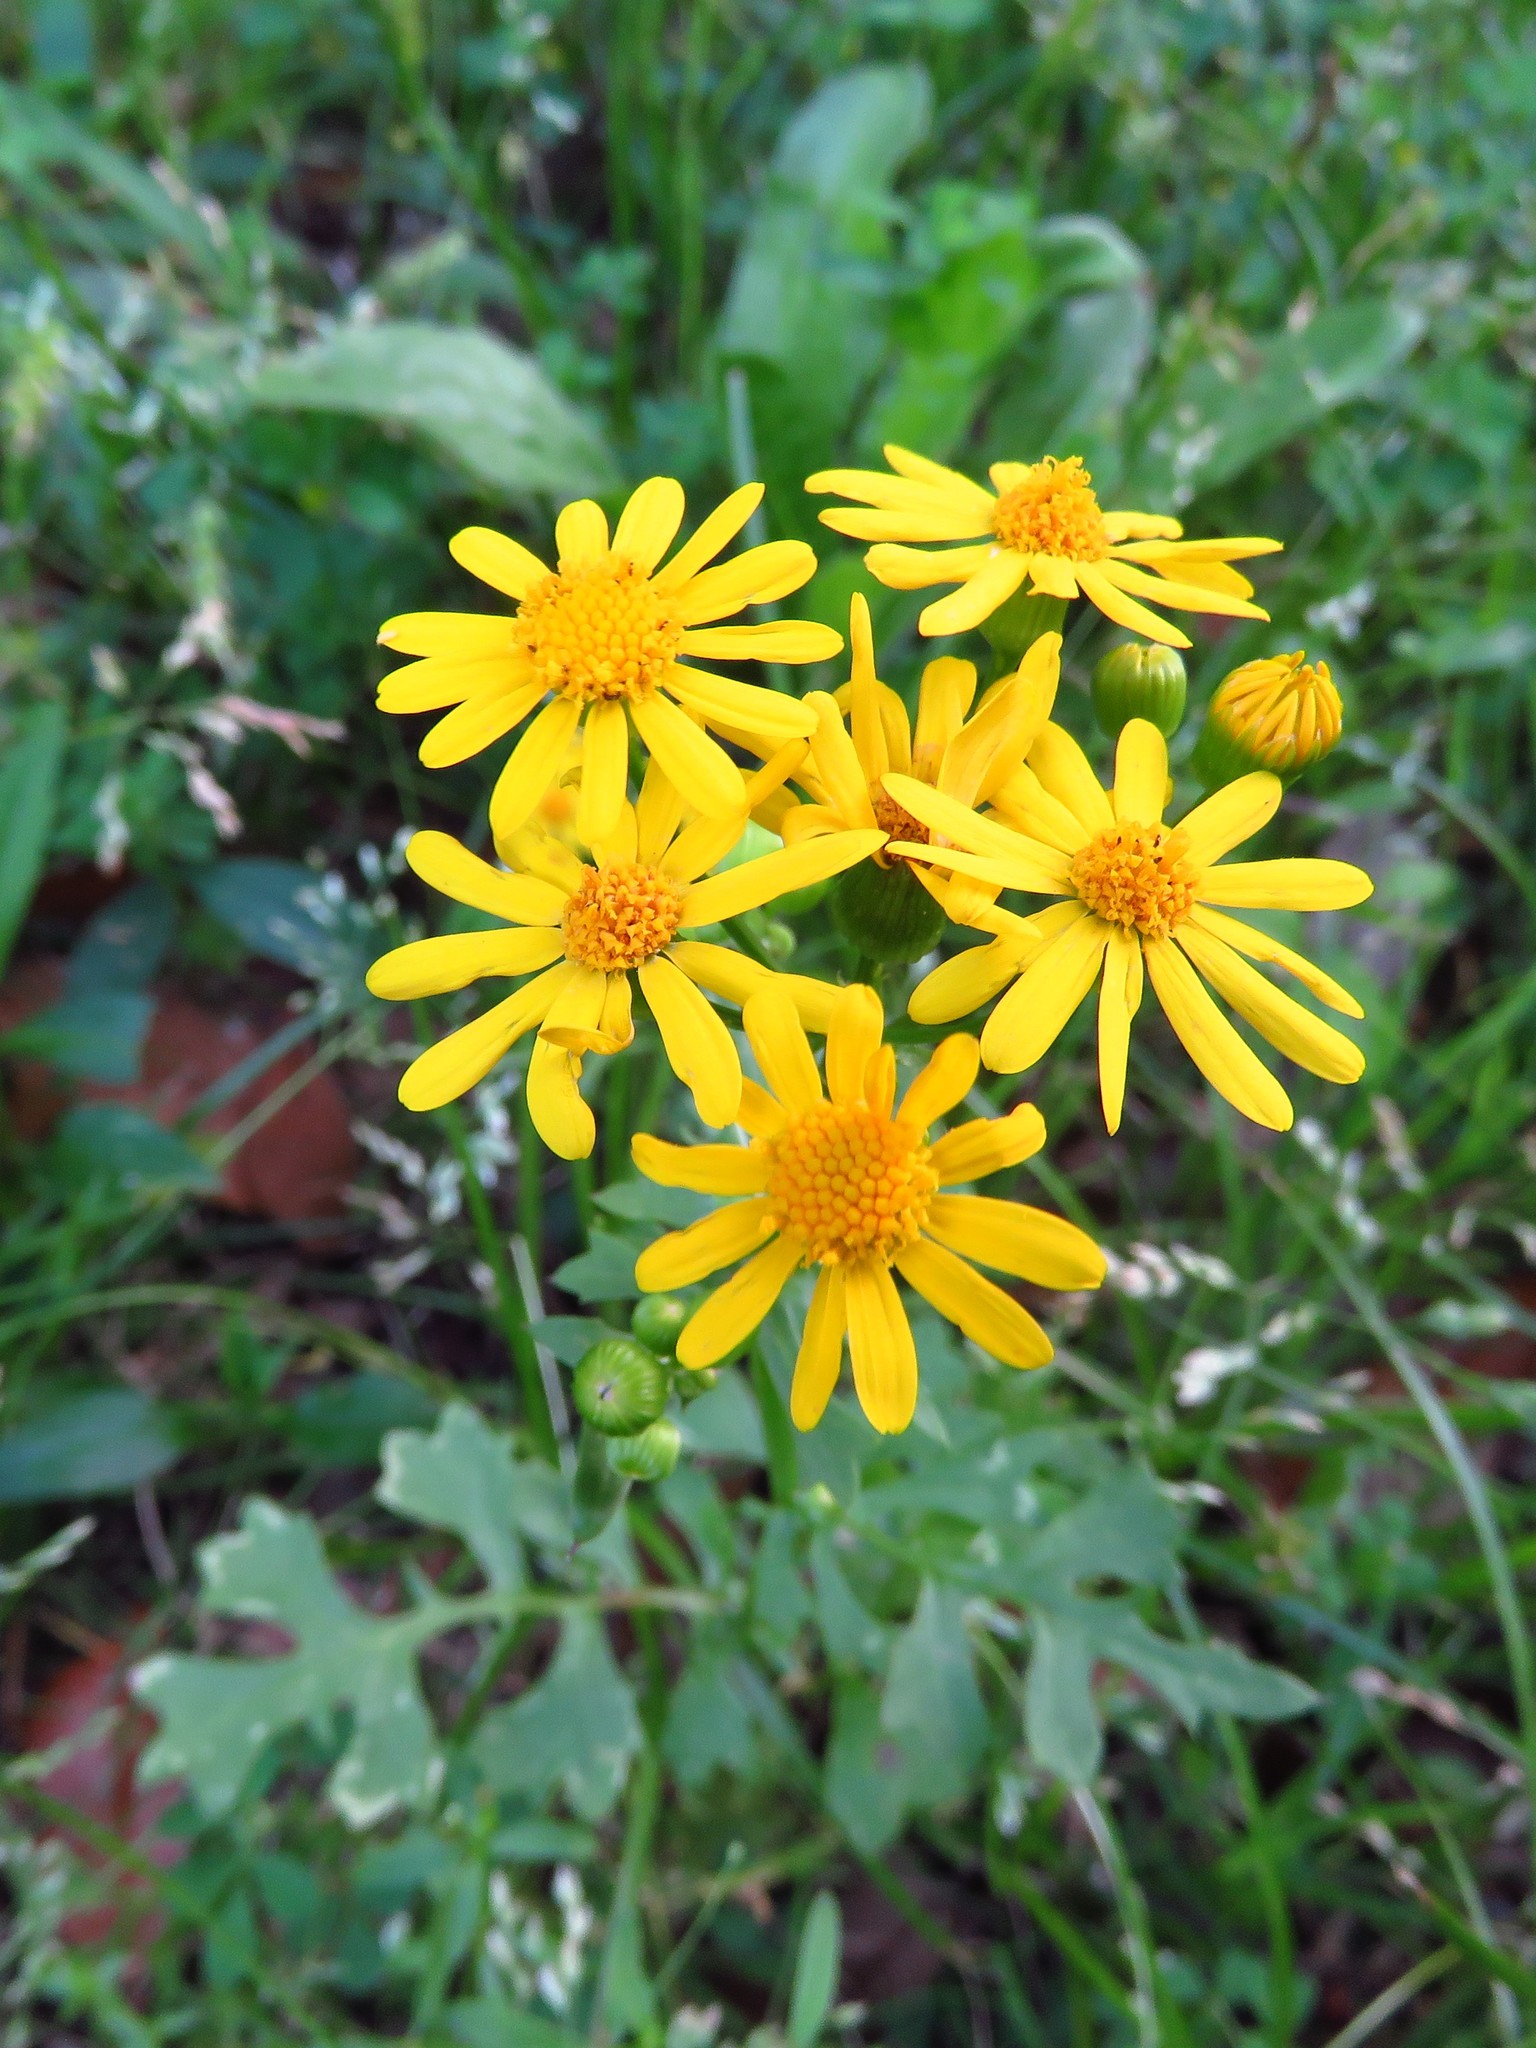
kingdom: Plantae
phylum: Tracheophyta
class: Magnoliopsida
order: Asterales
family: Asteraceae
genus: Packera
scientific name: Packera tampicana
